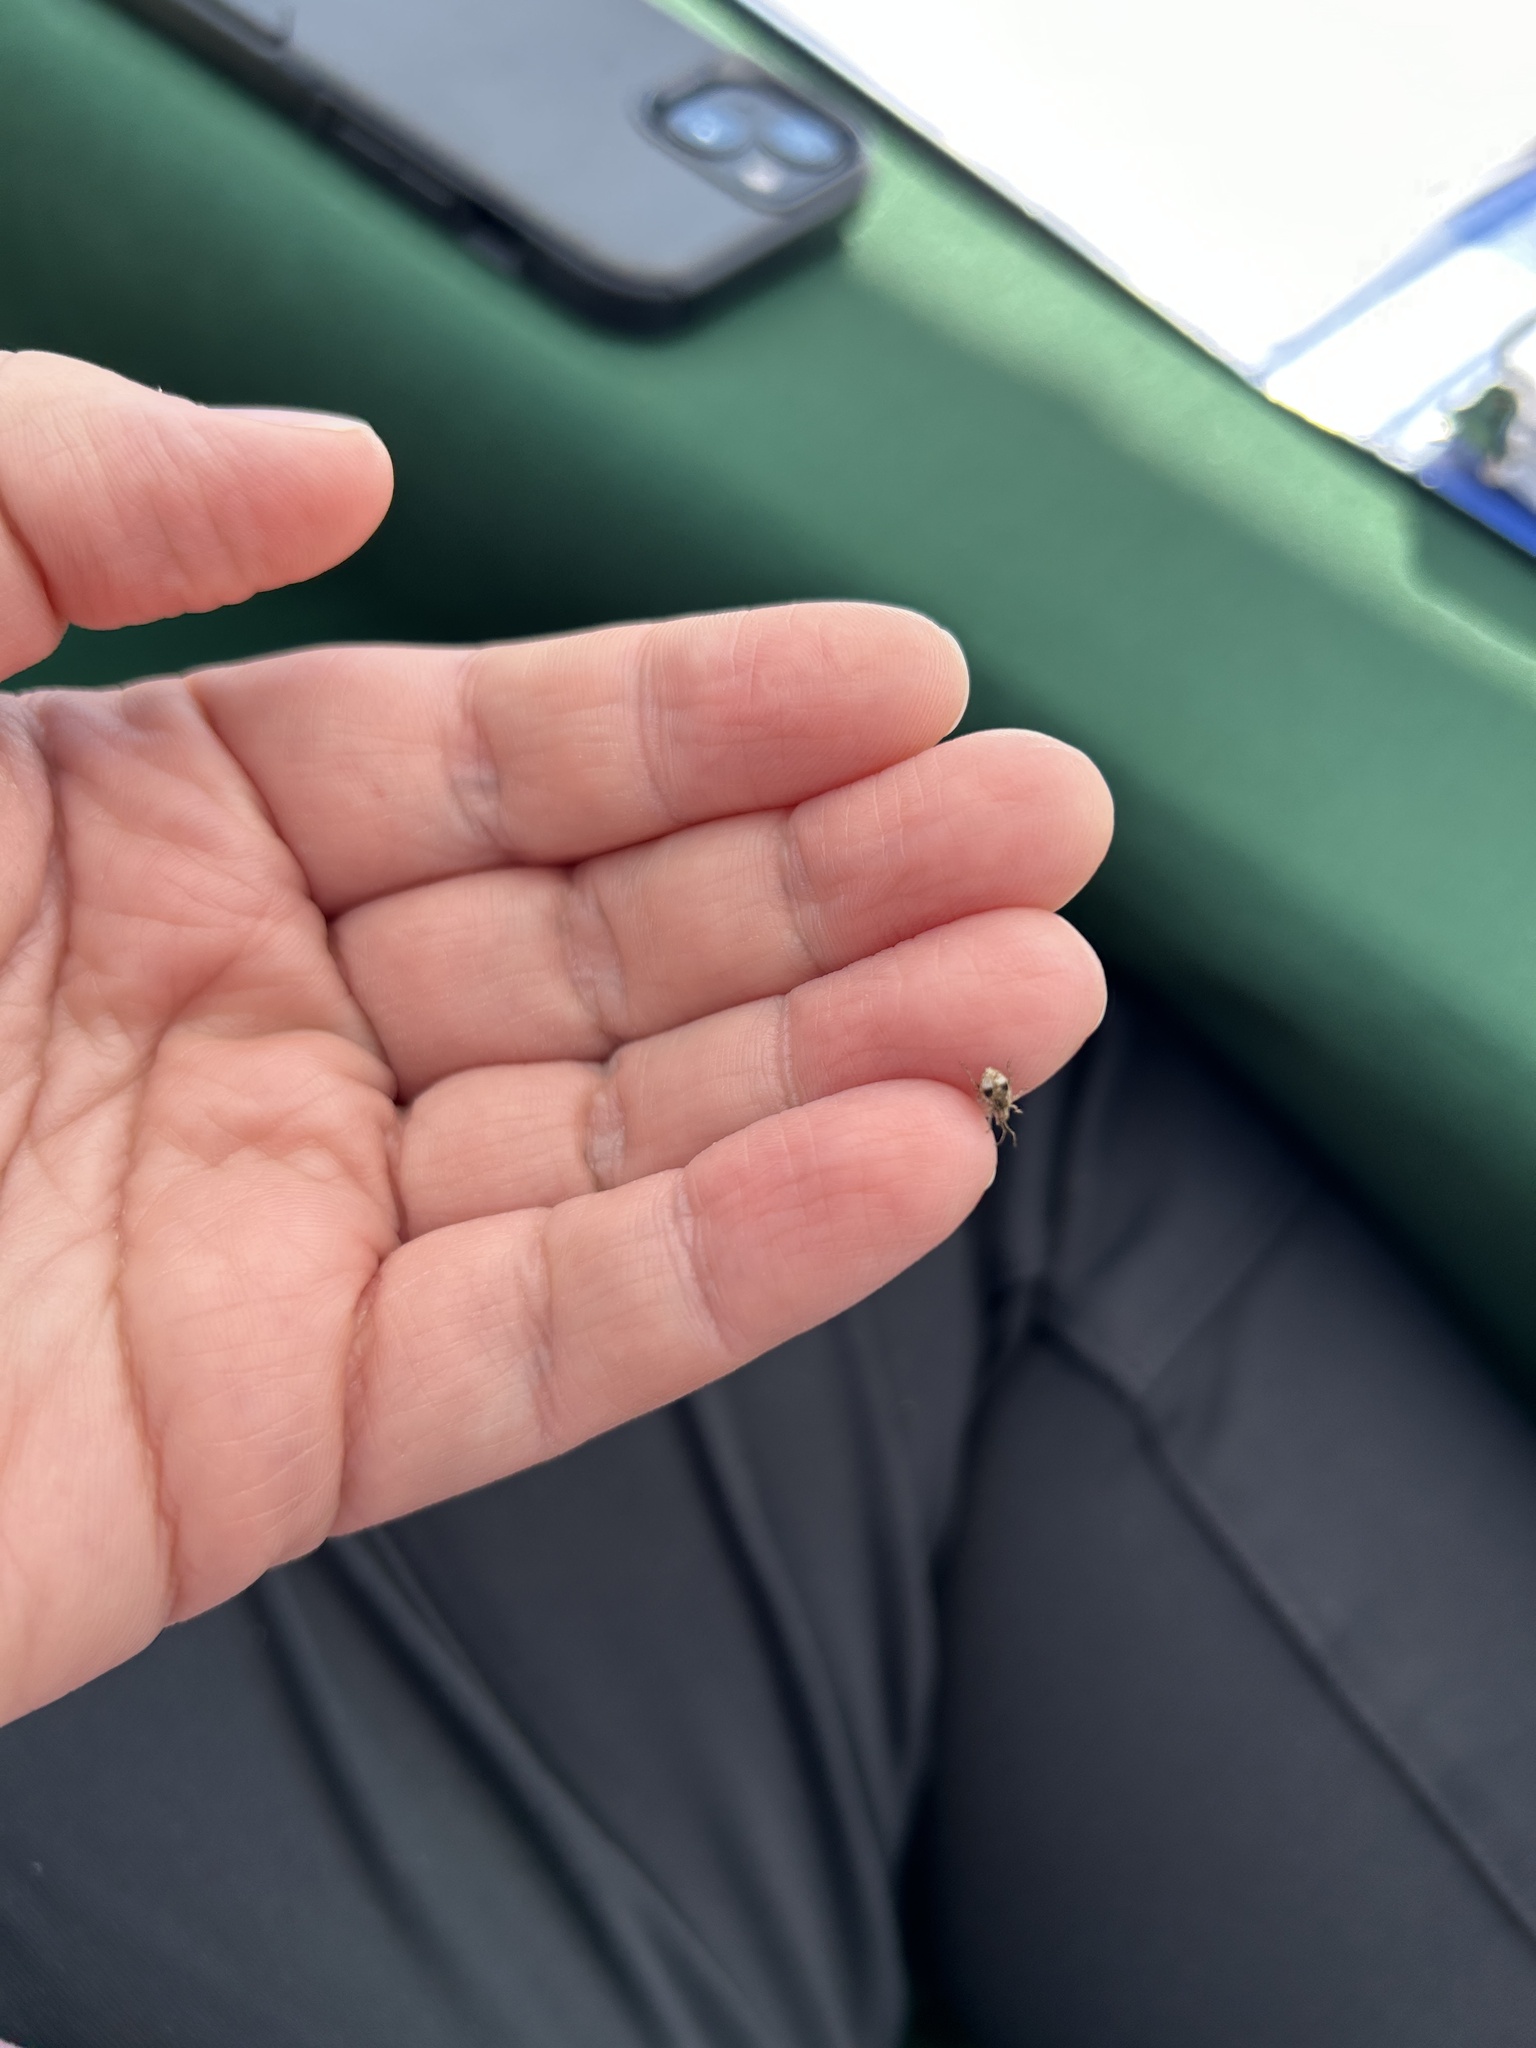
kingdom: Animalia
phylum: Arthropoda
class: Insecta
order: Coleoptera
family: Curculionidae
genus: Pseudoedophrys
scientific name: Pseudoedophrys hilleri
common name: Weevil
